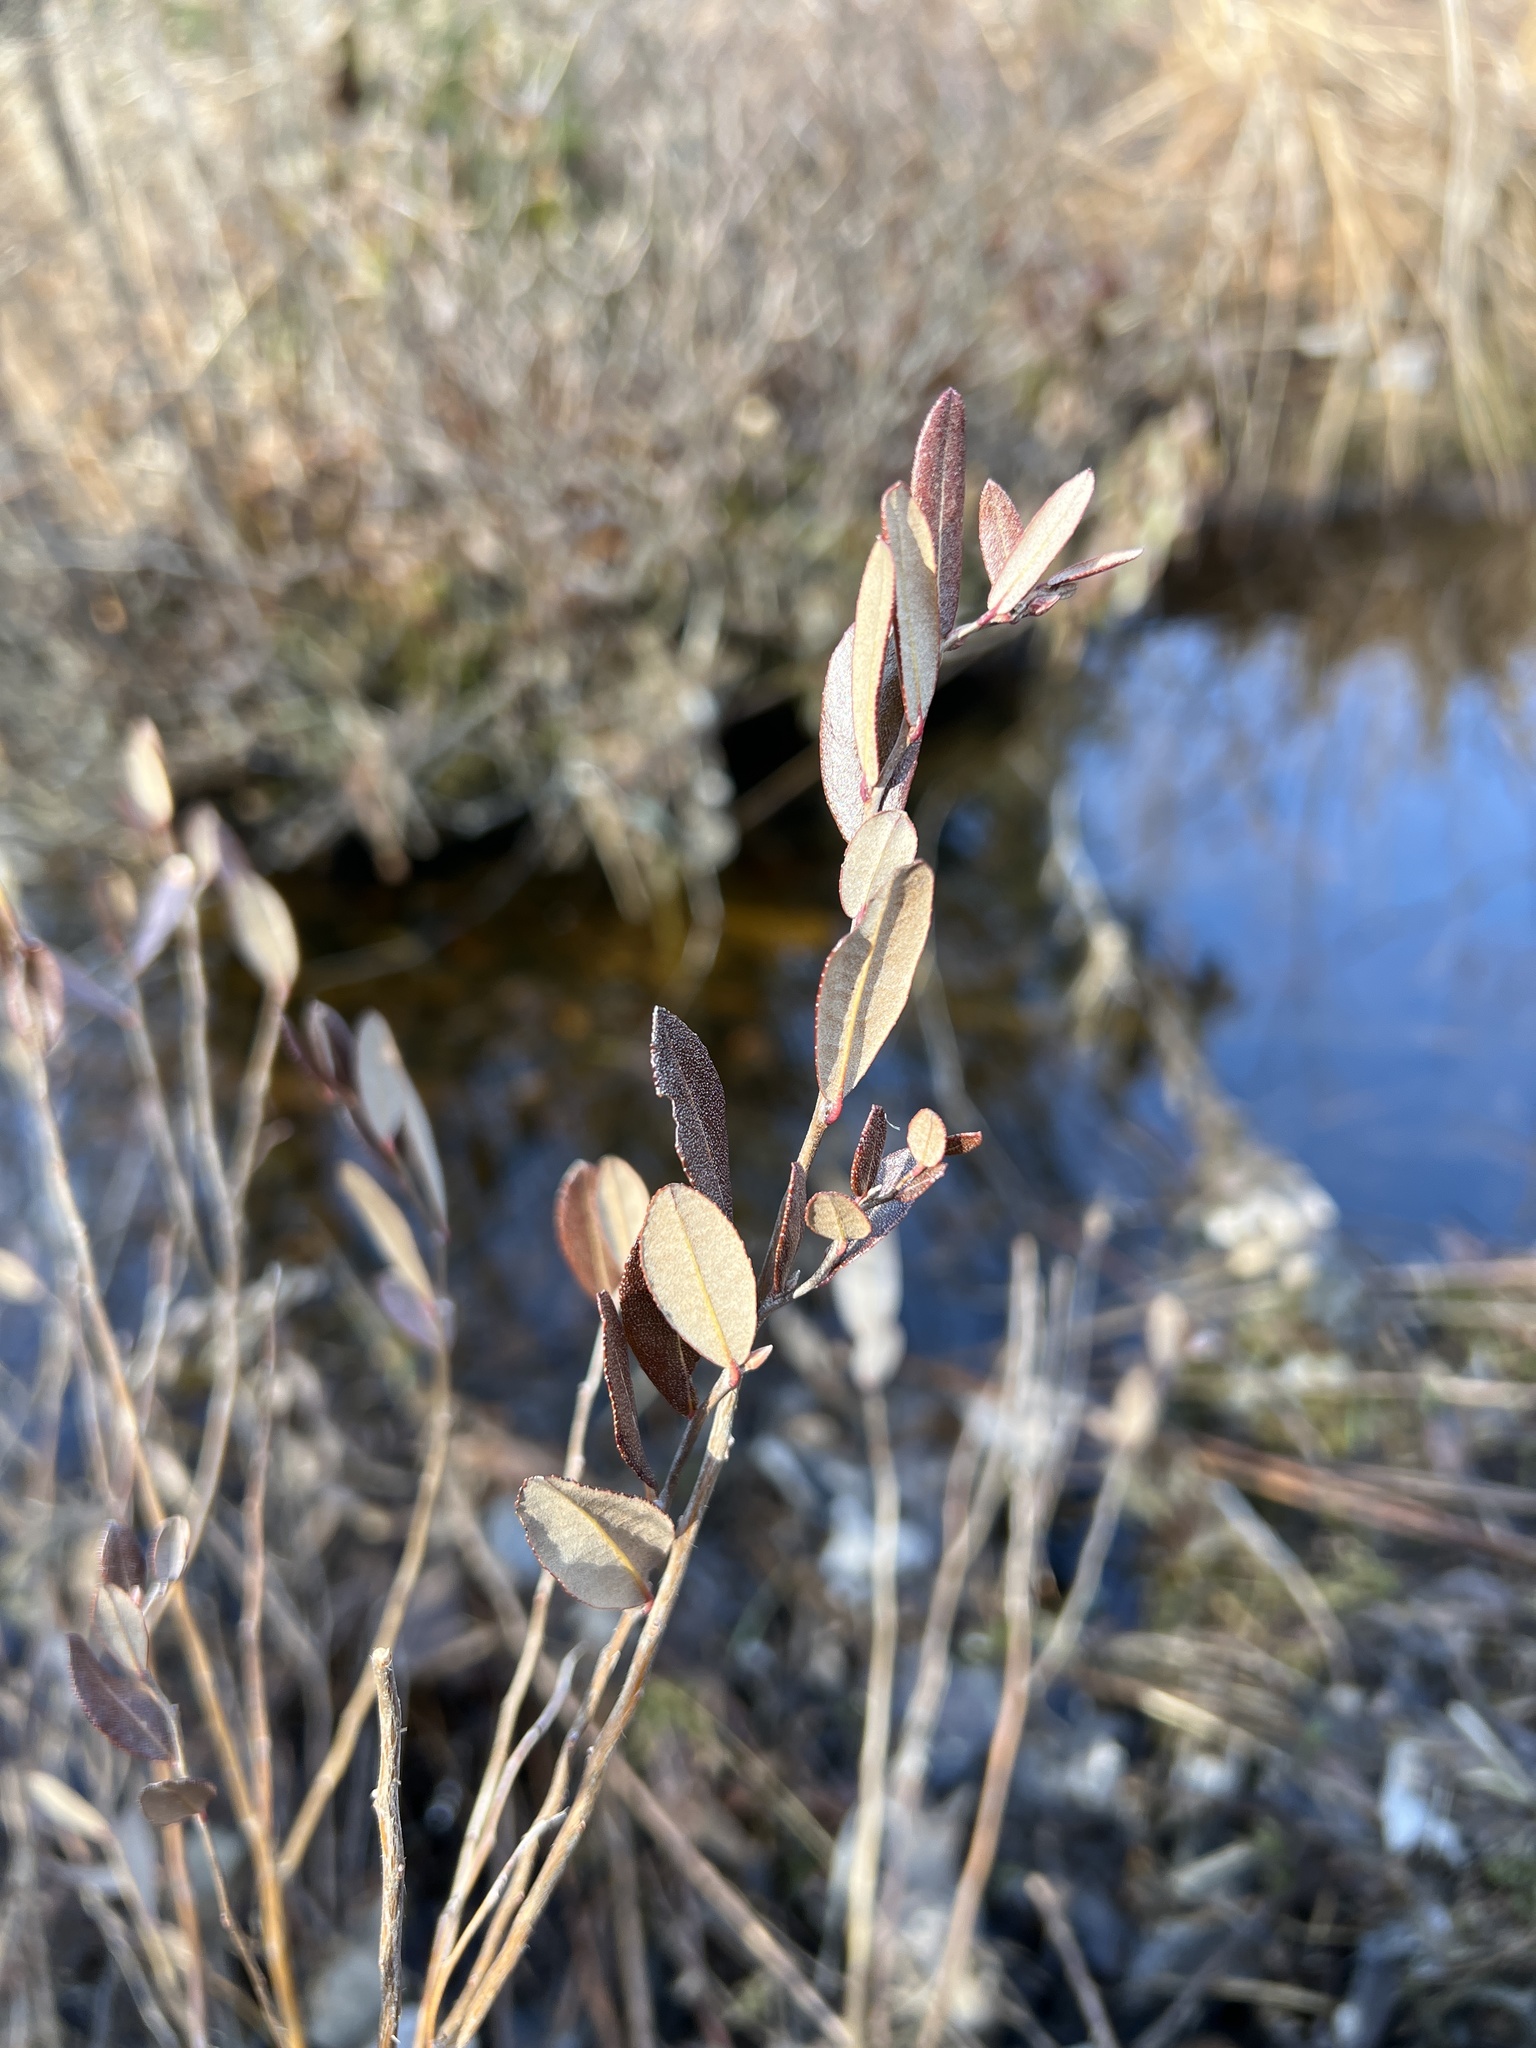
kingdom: Plantae
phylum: Tracheophyta
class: Magnoliopsida
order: Ericales
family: Ericaceae
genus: Chamaedaphne
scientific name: Chamaedaphne calyculata
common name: Leatherleaf
